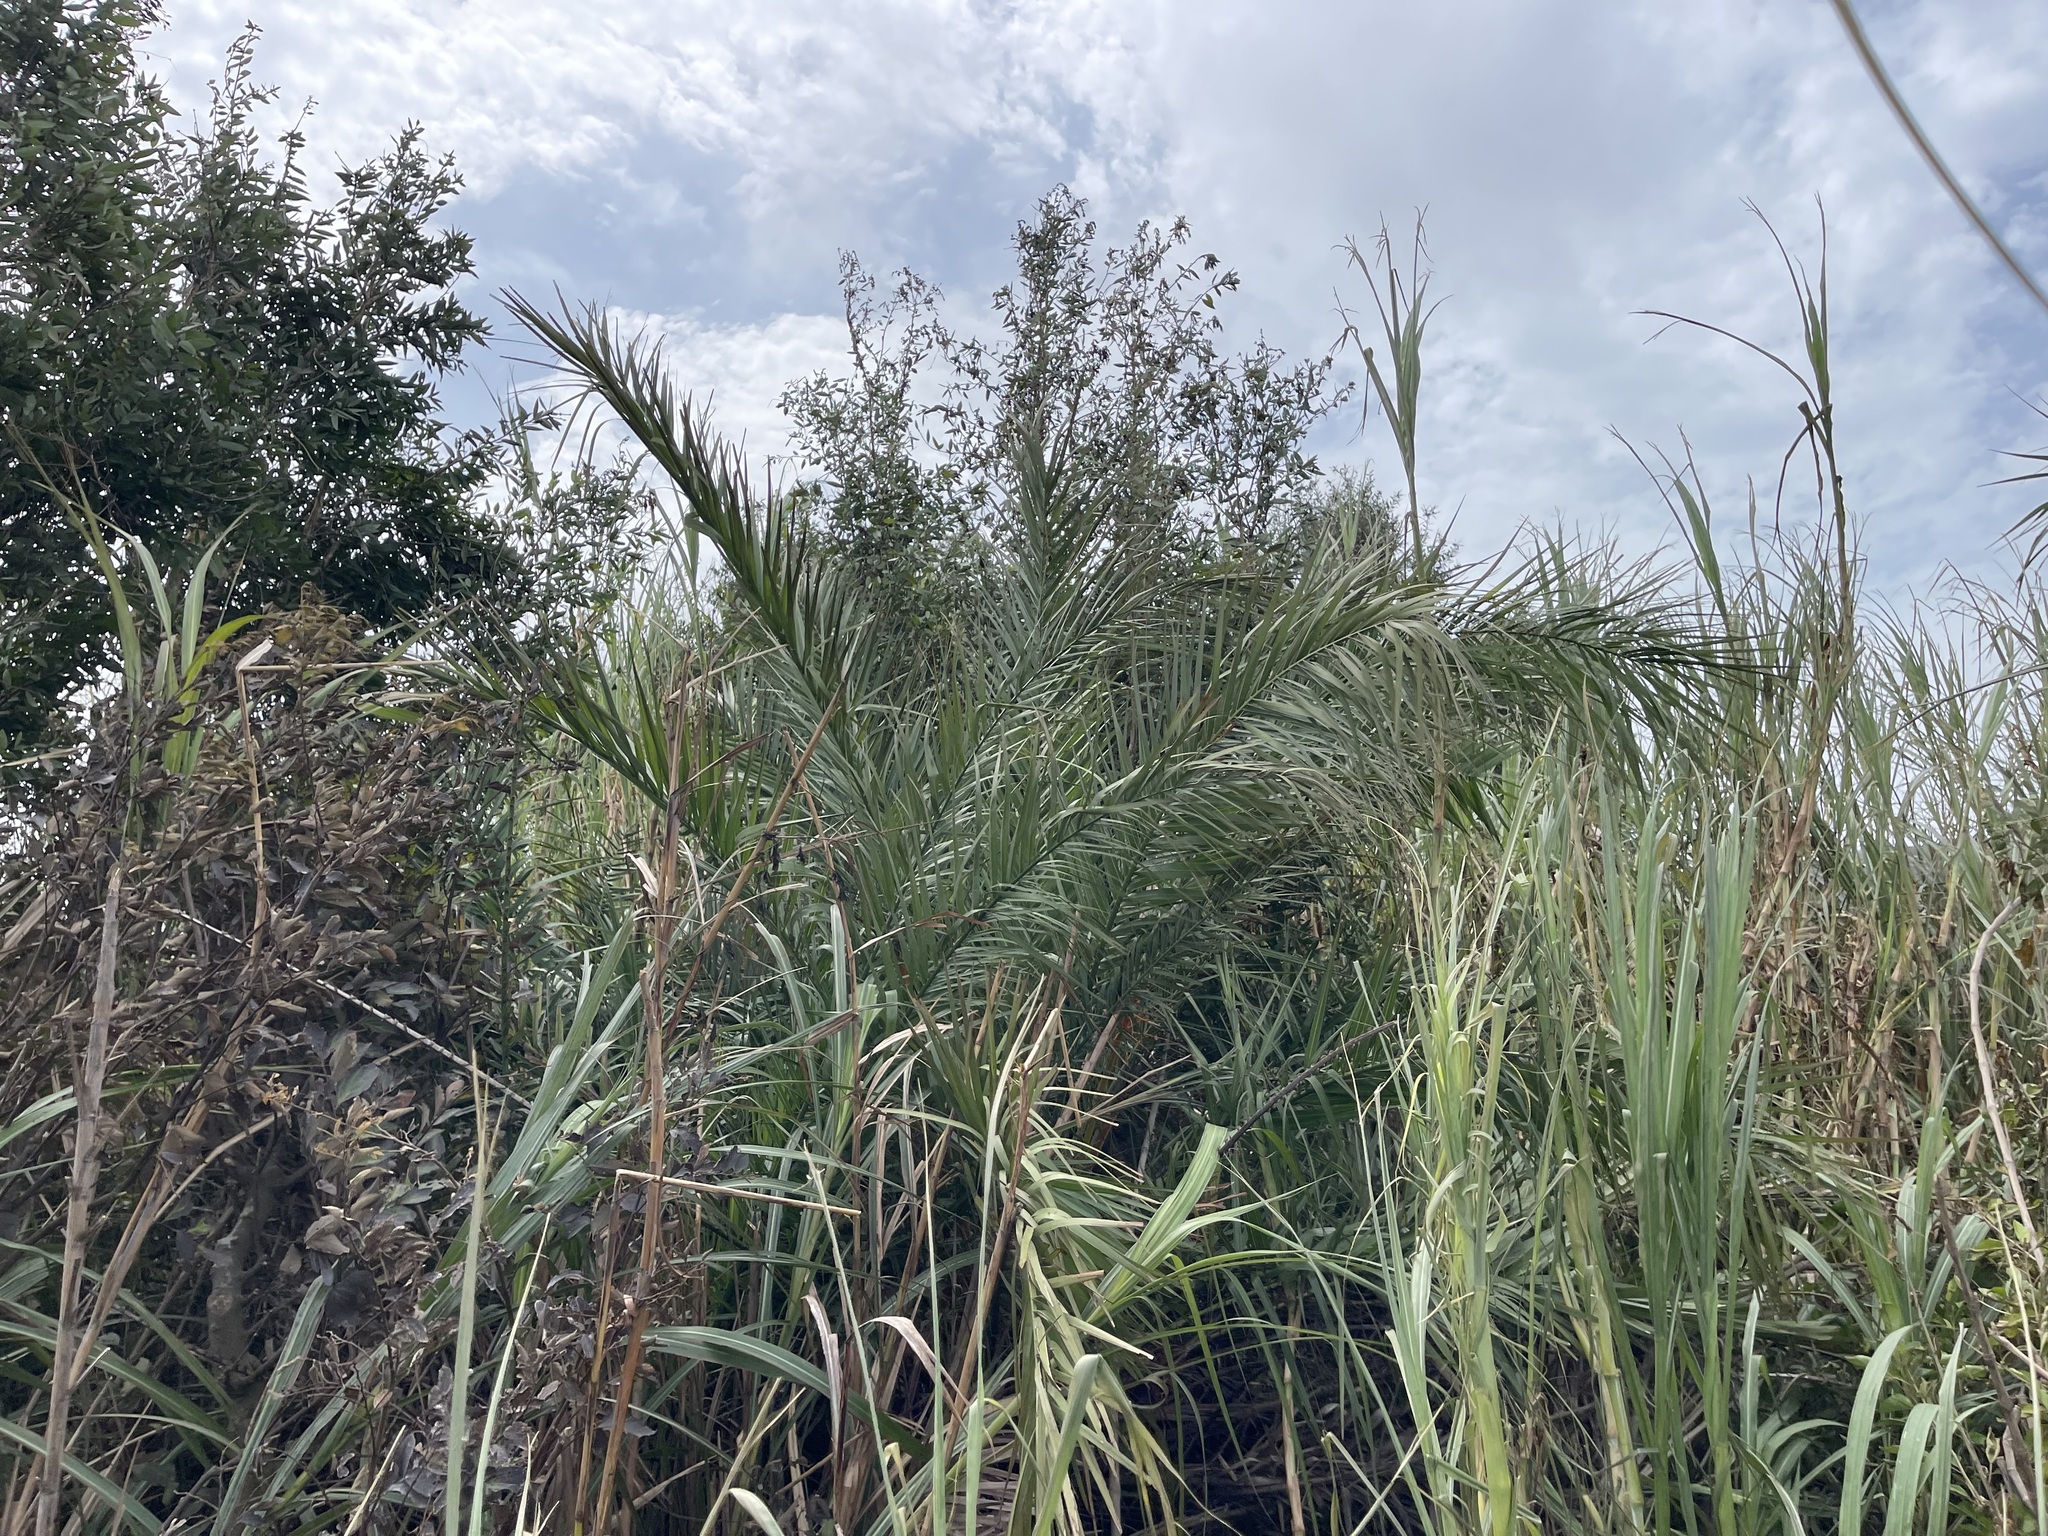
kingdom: Plantae
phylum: Tracheophyta
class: Liliopsida
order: Arecales
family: Arecaceae
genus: Phoenix
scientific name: Phoenix loureiroi
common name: Loureiro's palm
